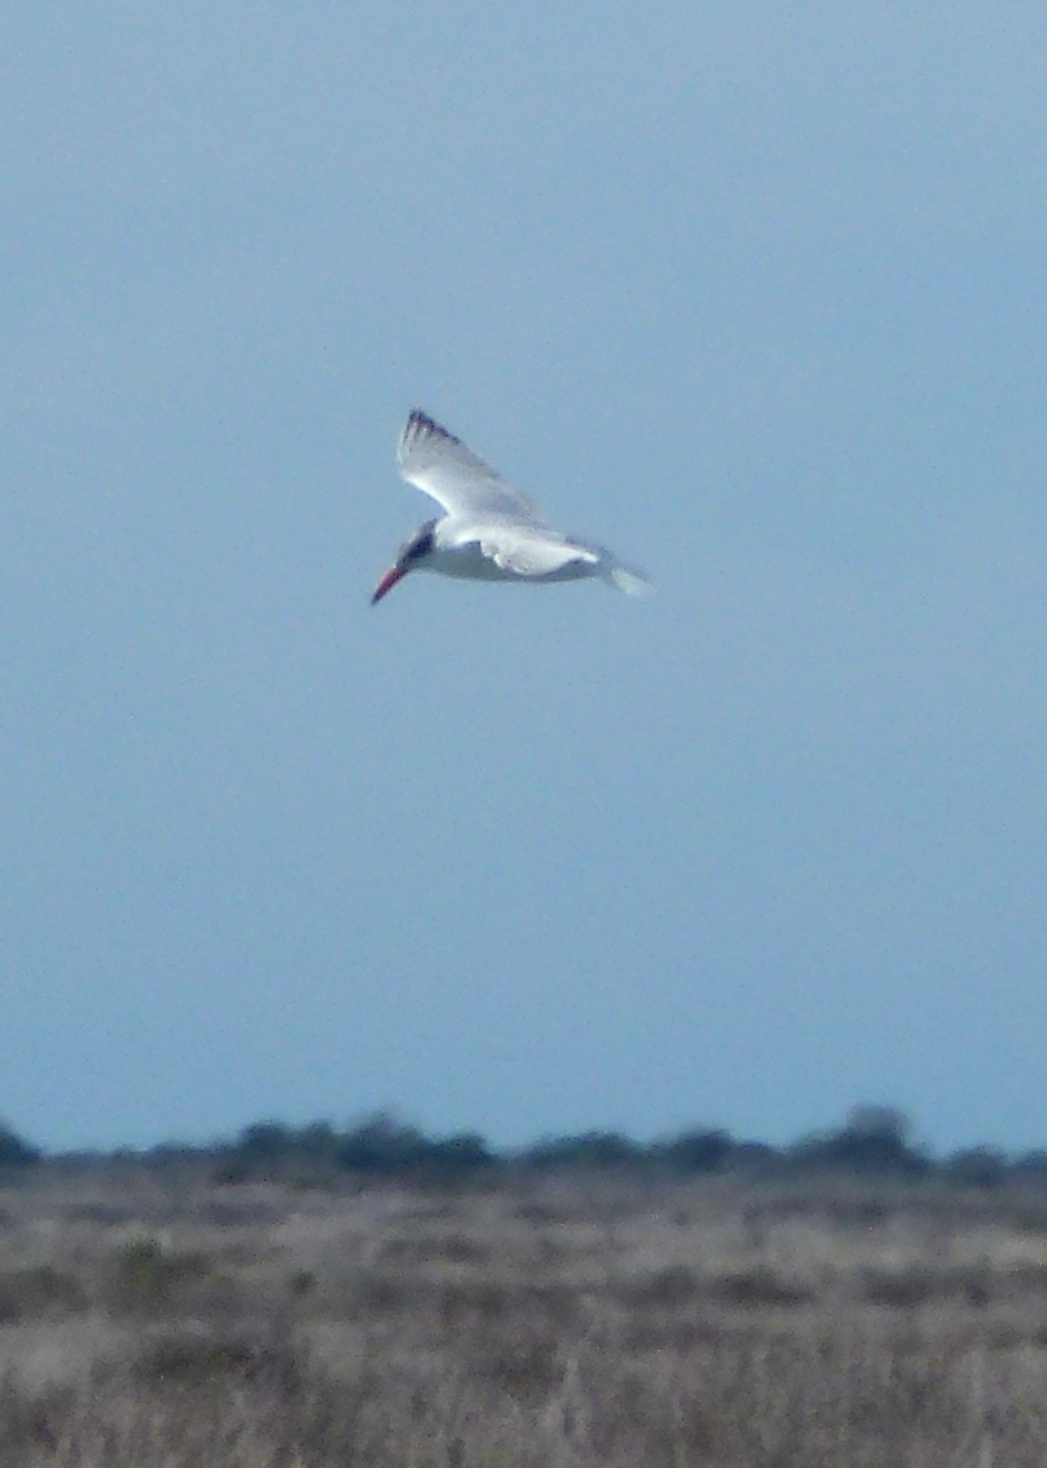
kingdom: Animalia
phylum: Chordata
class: Aves
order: Charadriiformes
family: Laridae
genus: Hydroprogne
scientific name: Hydroprogne caspia
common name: Caspian tern
